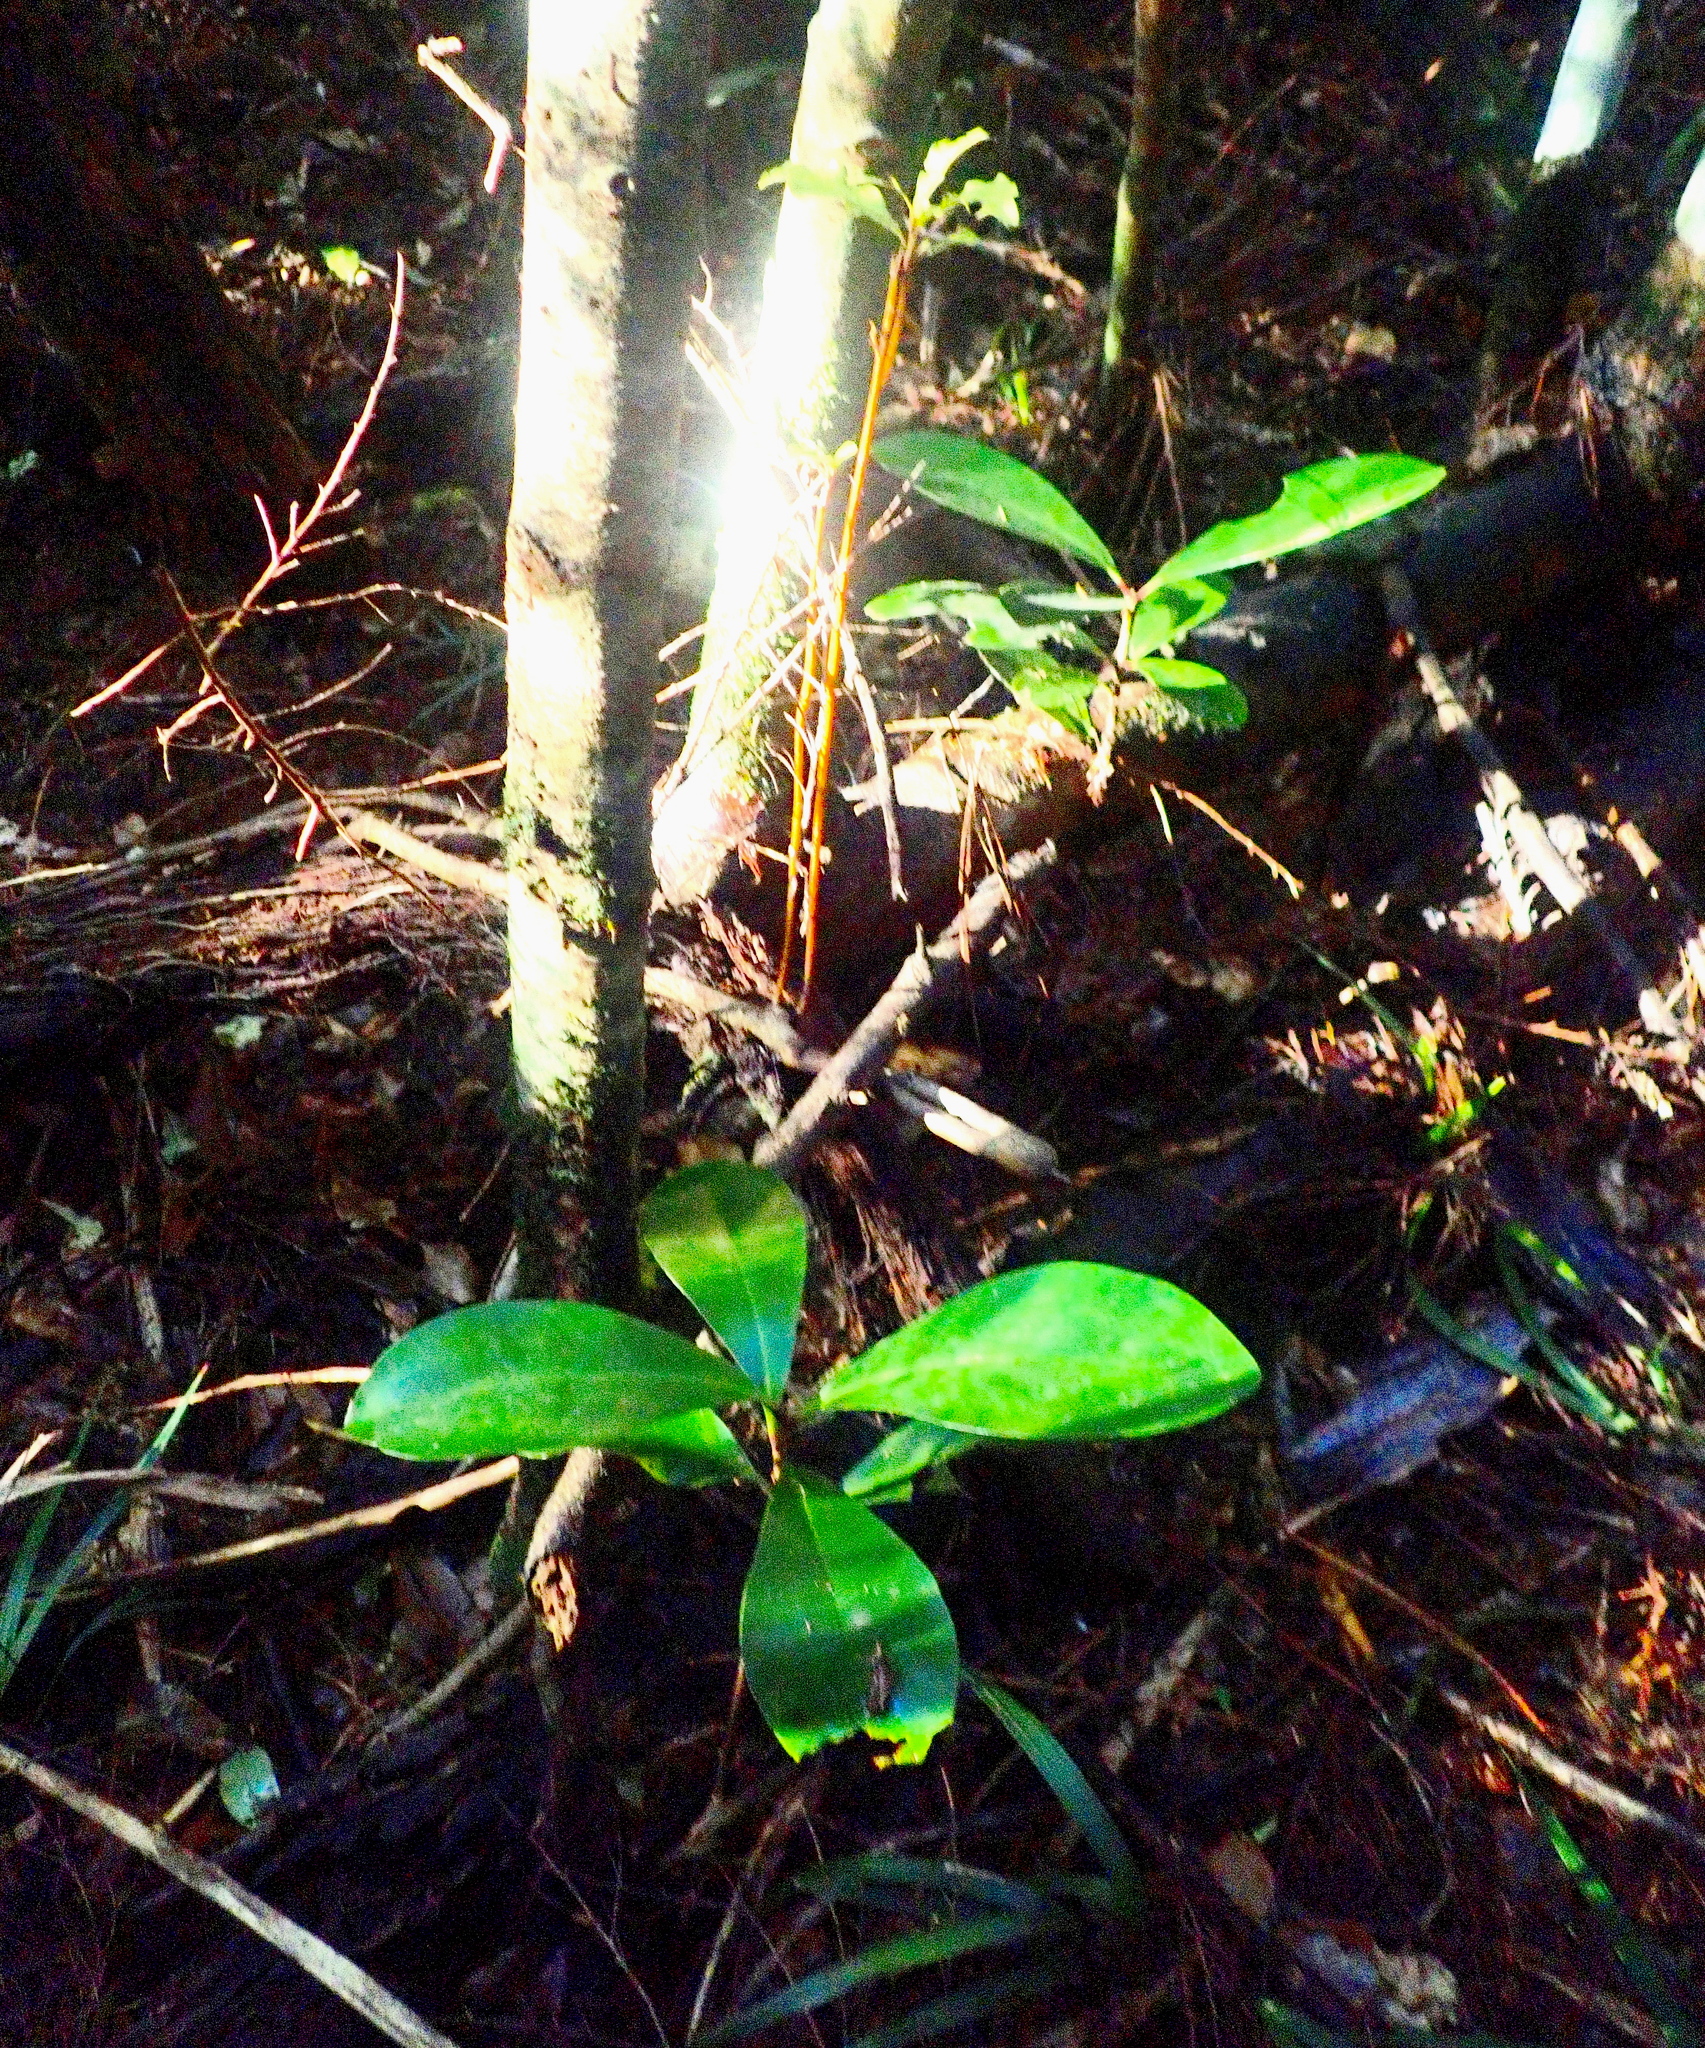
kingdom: Plantae
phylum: Tracheophyta
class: Magnoliopsida
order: Cucurbitales
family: Corynocarpaceae
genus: Corynocarpus
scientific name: Corynocarpus laevigatus
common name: New zealand laurel
